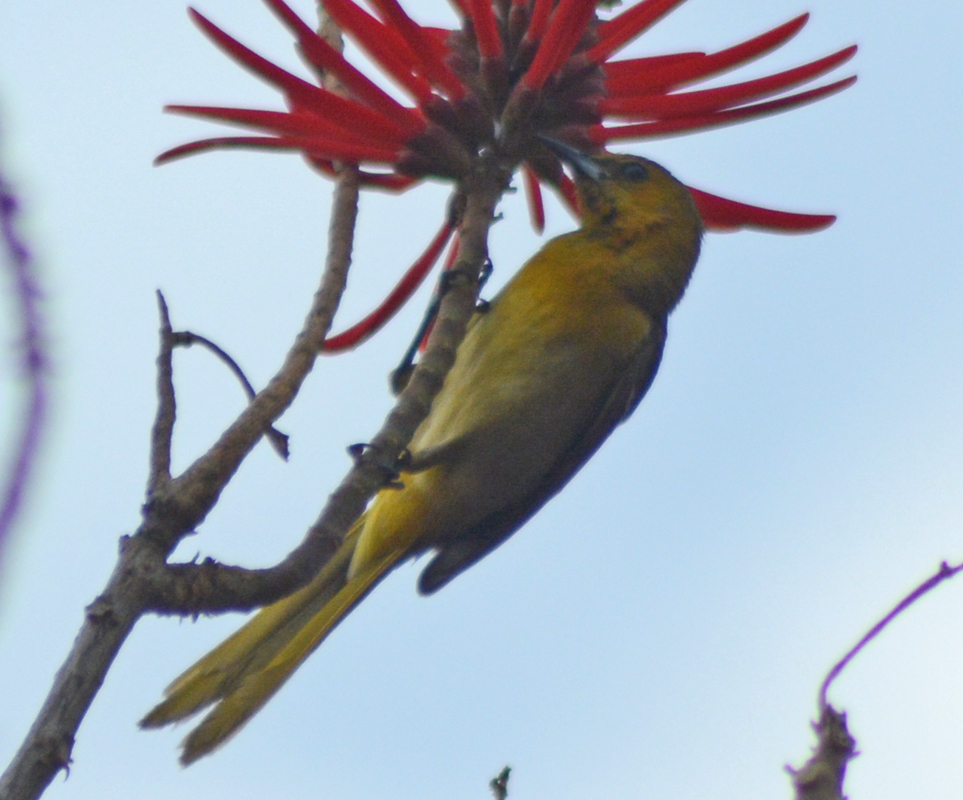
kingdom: Animalia
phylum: Chordata
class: Aves
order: Passeriformes
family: Icteridae
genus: Icterus
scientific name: Icterus abeillei
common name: Black-backed oriole
